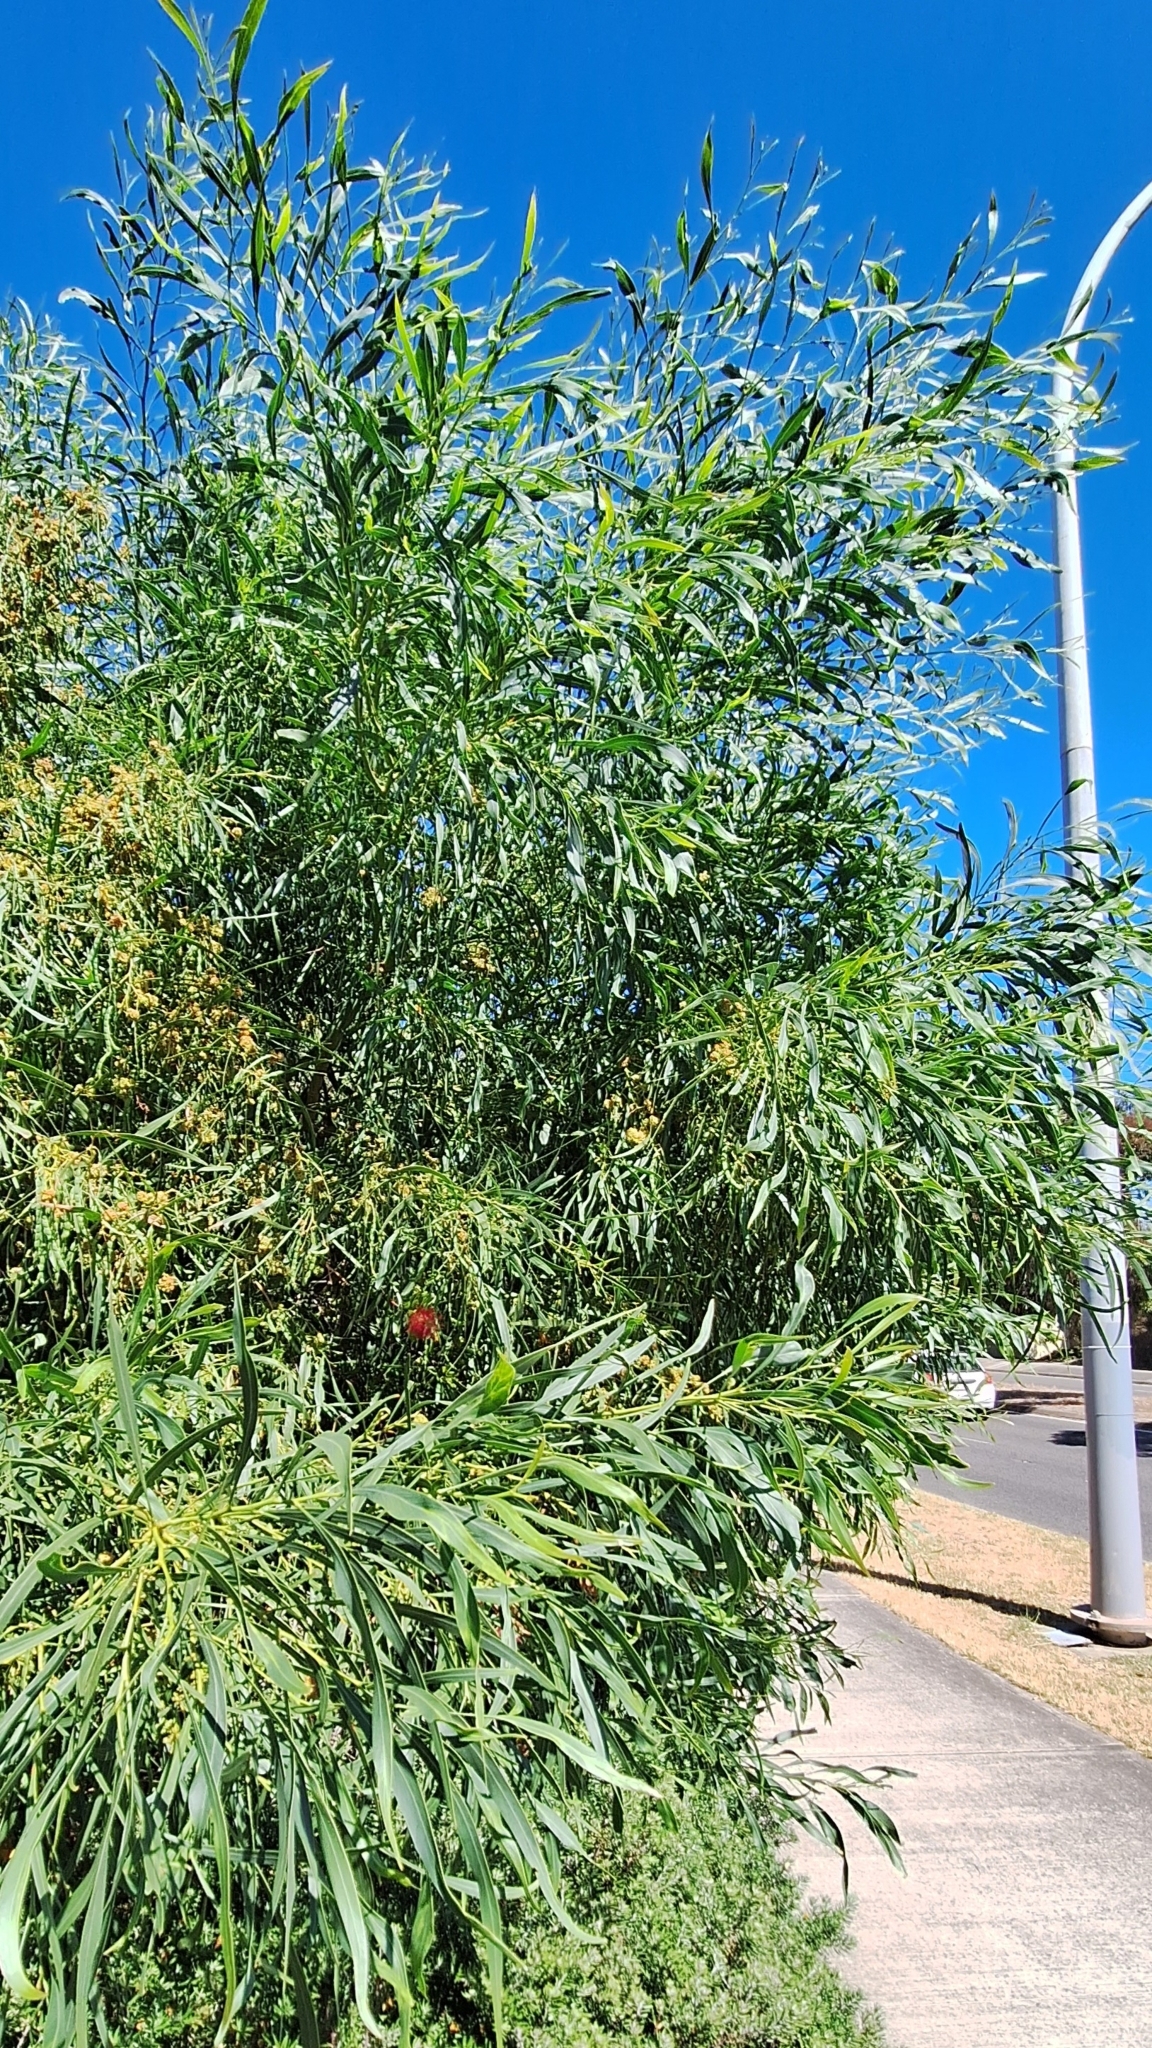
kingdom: Plantae
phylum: Tracheophyta
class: Magnoliopsida
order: Fabales
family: Fabaceae
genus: Acacia
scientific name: Acacia saligna
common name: Orange wattle
